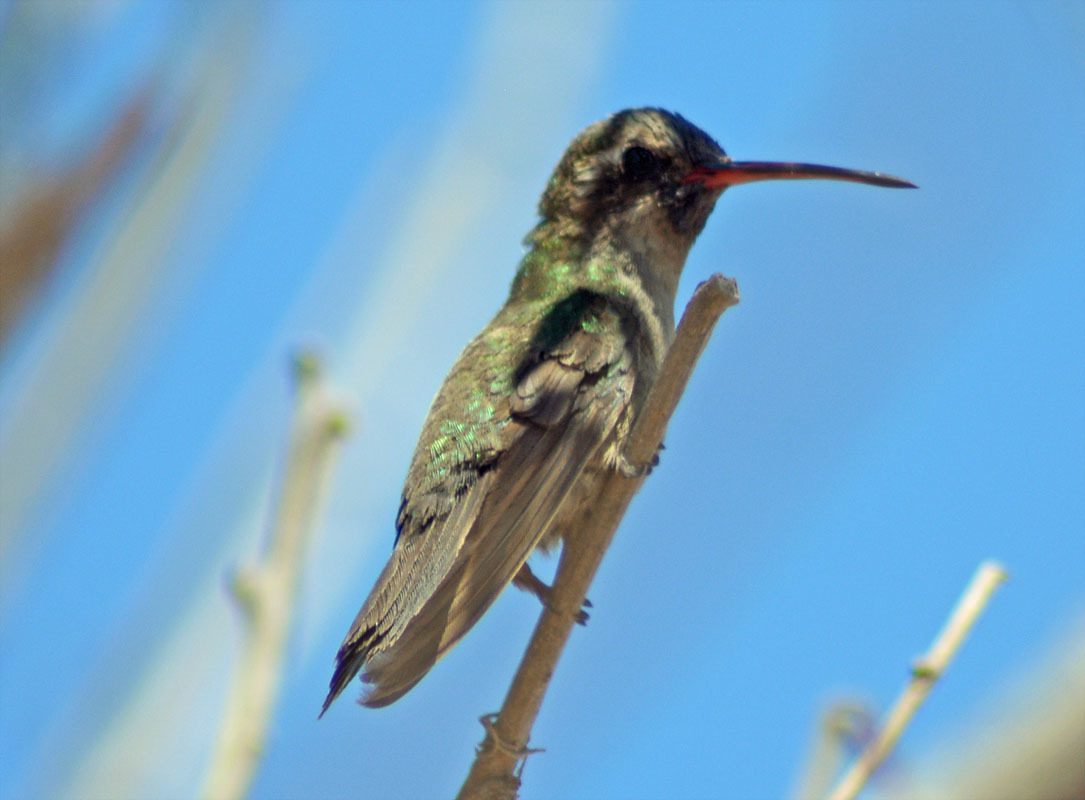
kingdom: Animalia
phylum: Chordata
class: Aves
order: Apodiformes
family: Trochilidae
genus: Cynanthus
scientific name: Cynanthus latirostris
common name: Broad-billed hummingbird
